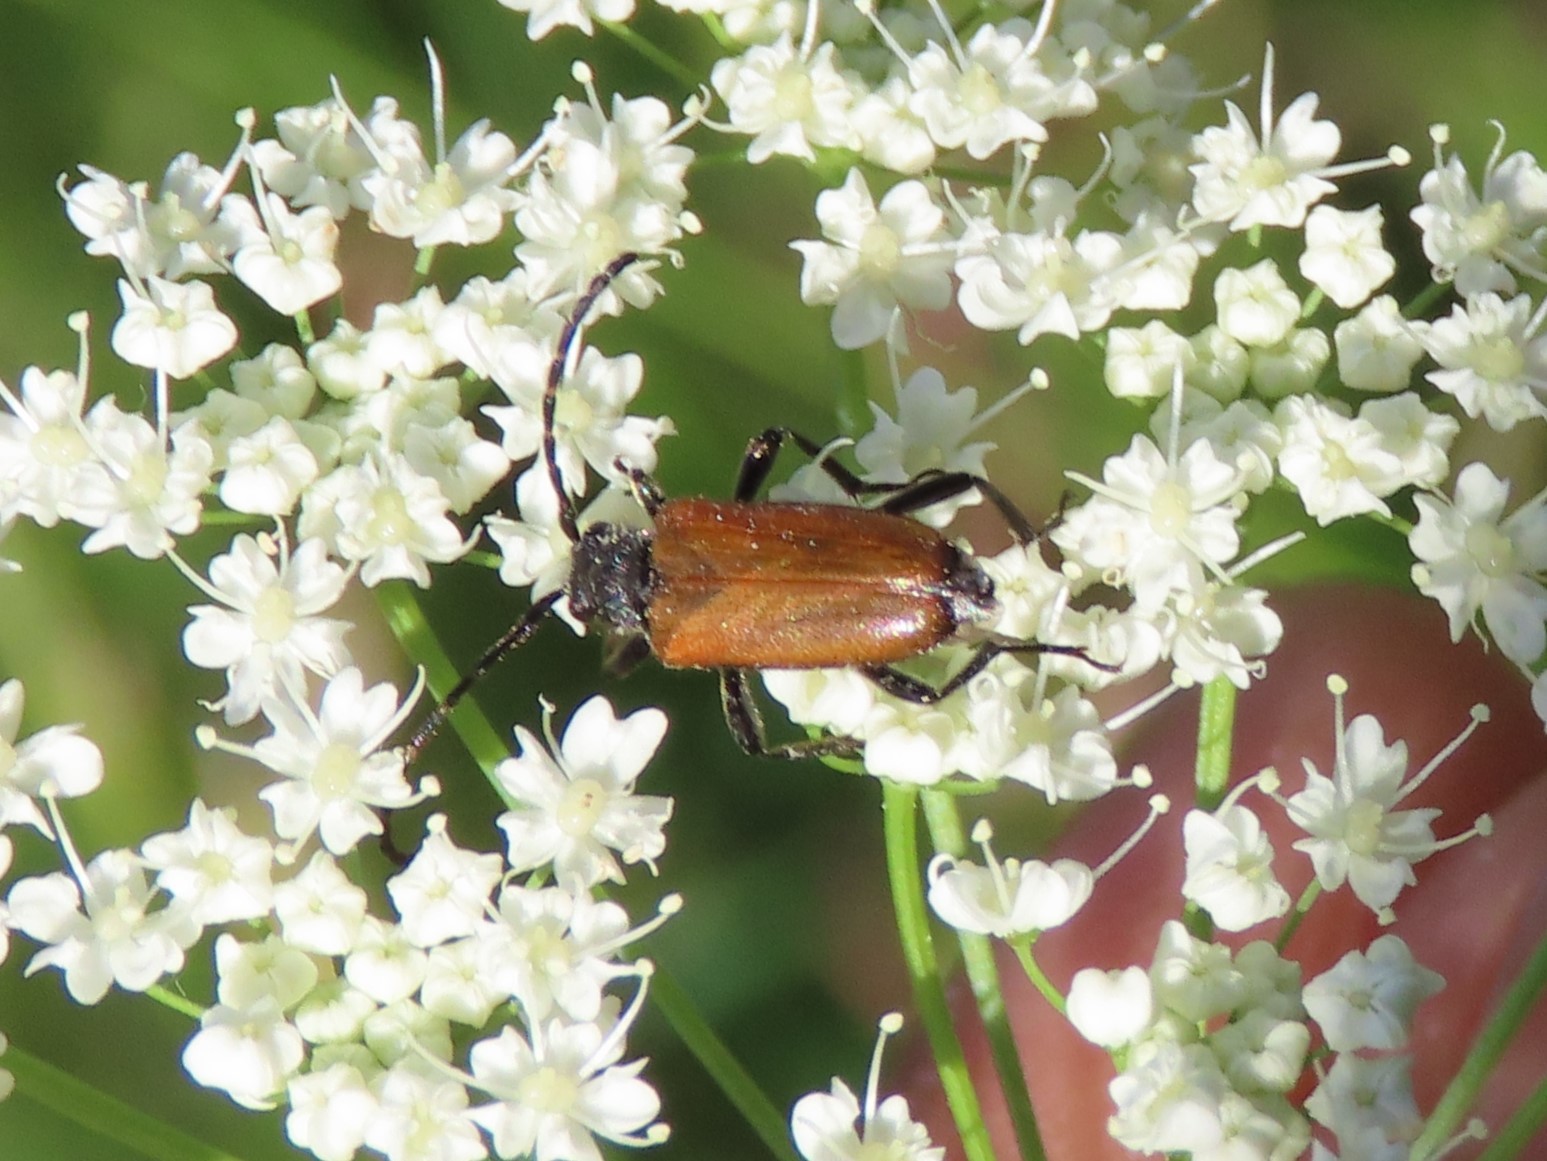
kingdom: Animalia
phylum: Arthropoda
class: Insecta
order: Coleoptera
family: Cerambycidae
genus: Paracorymbia
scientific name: Paracorymbia maculicornis
